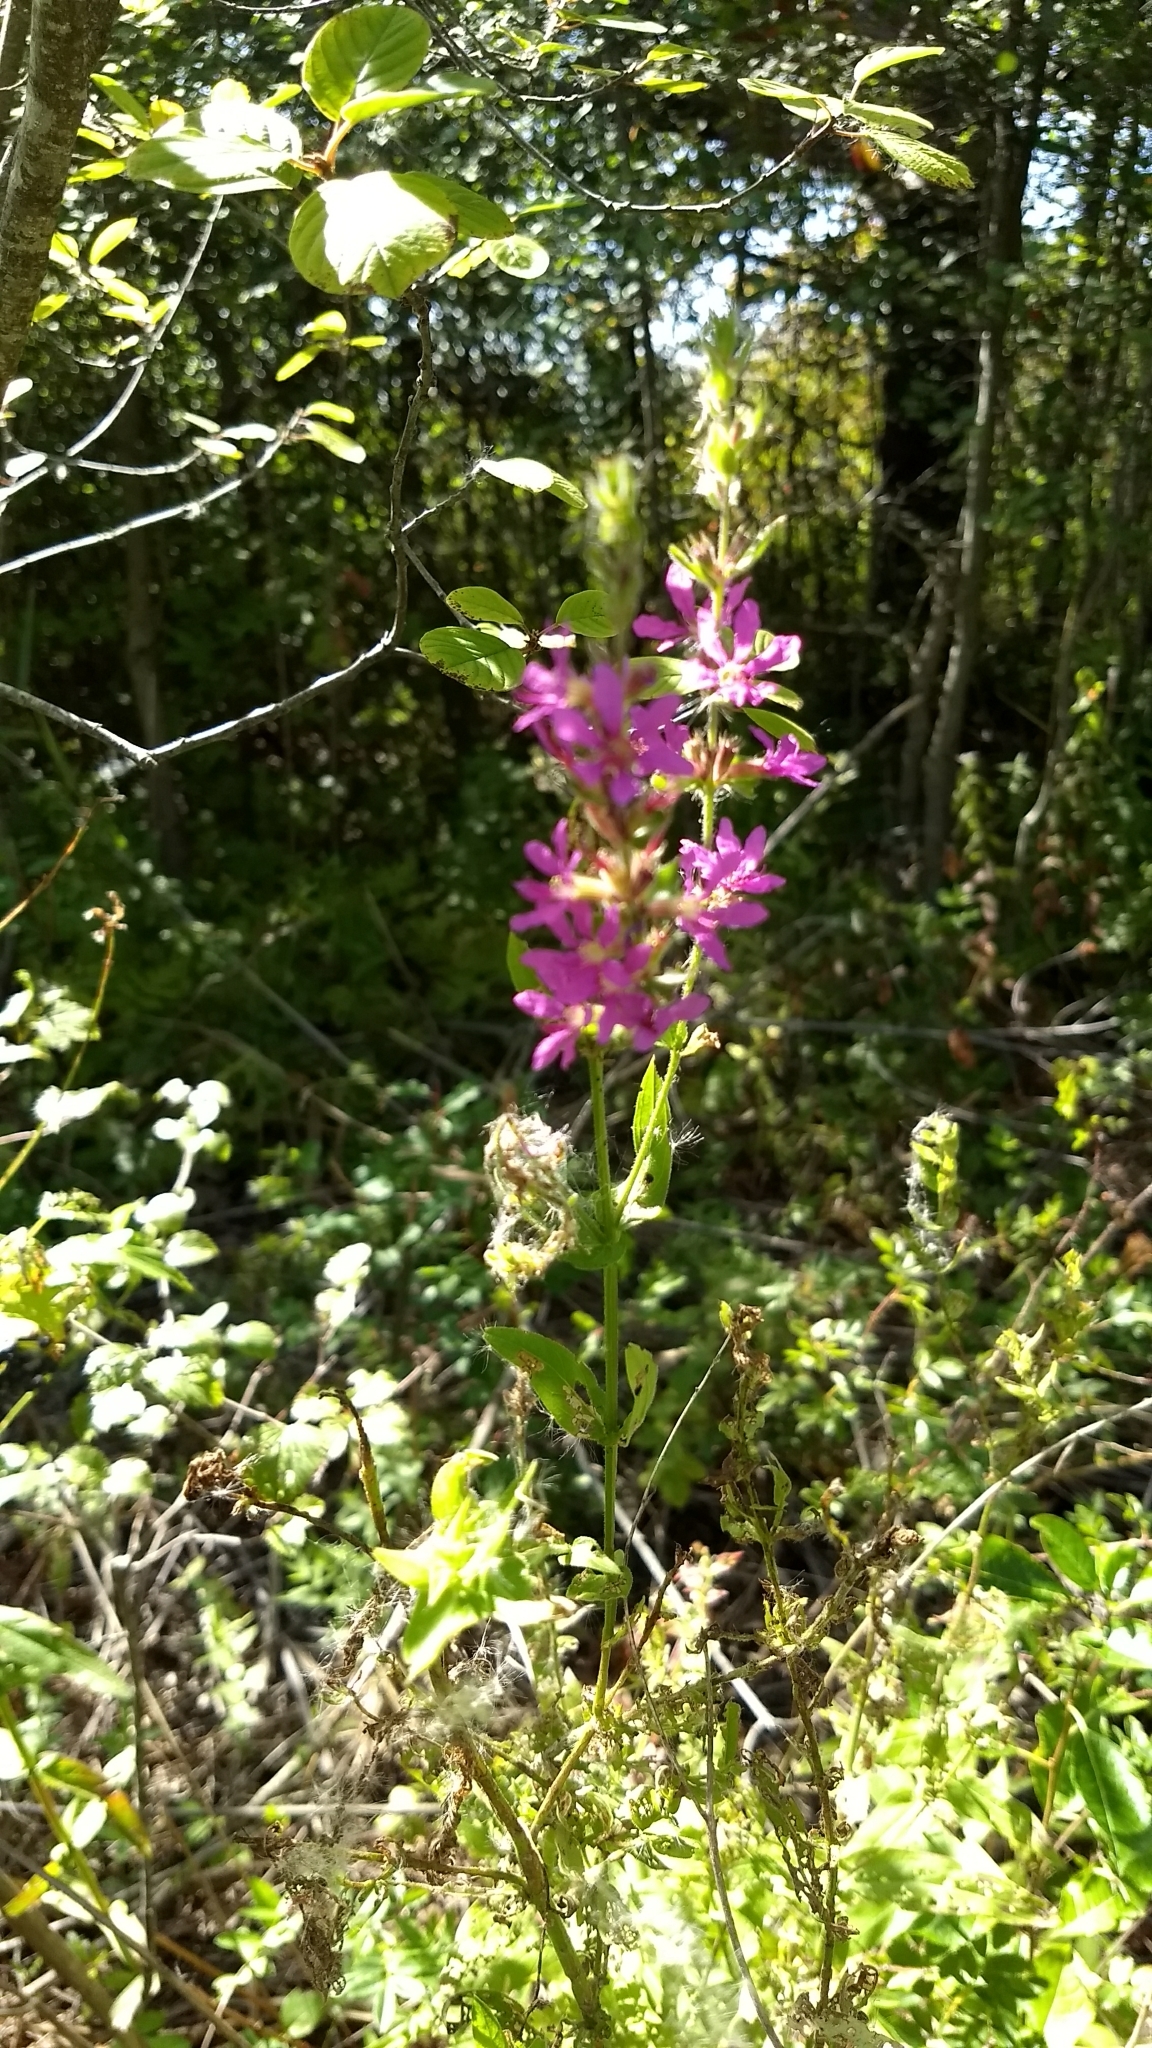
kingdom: Plantae
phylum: Tracheophyta
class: Magnoliopsida
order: Myrtales
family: Lythraceae
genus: Lythrum
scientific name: Lythrum salicaria
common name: Purple loosestrife
